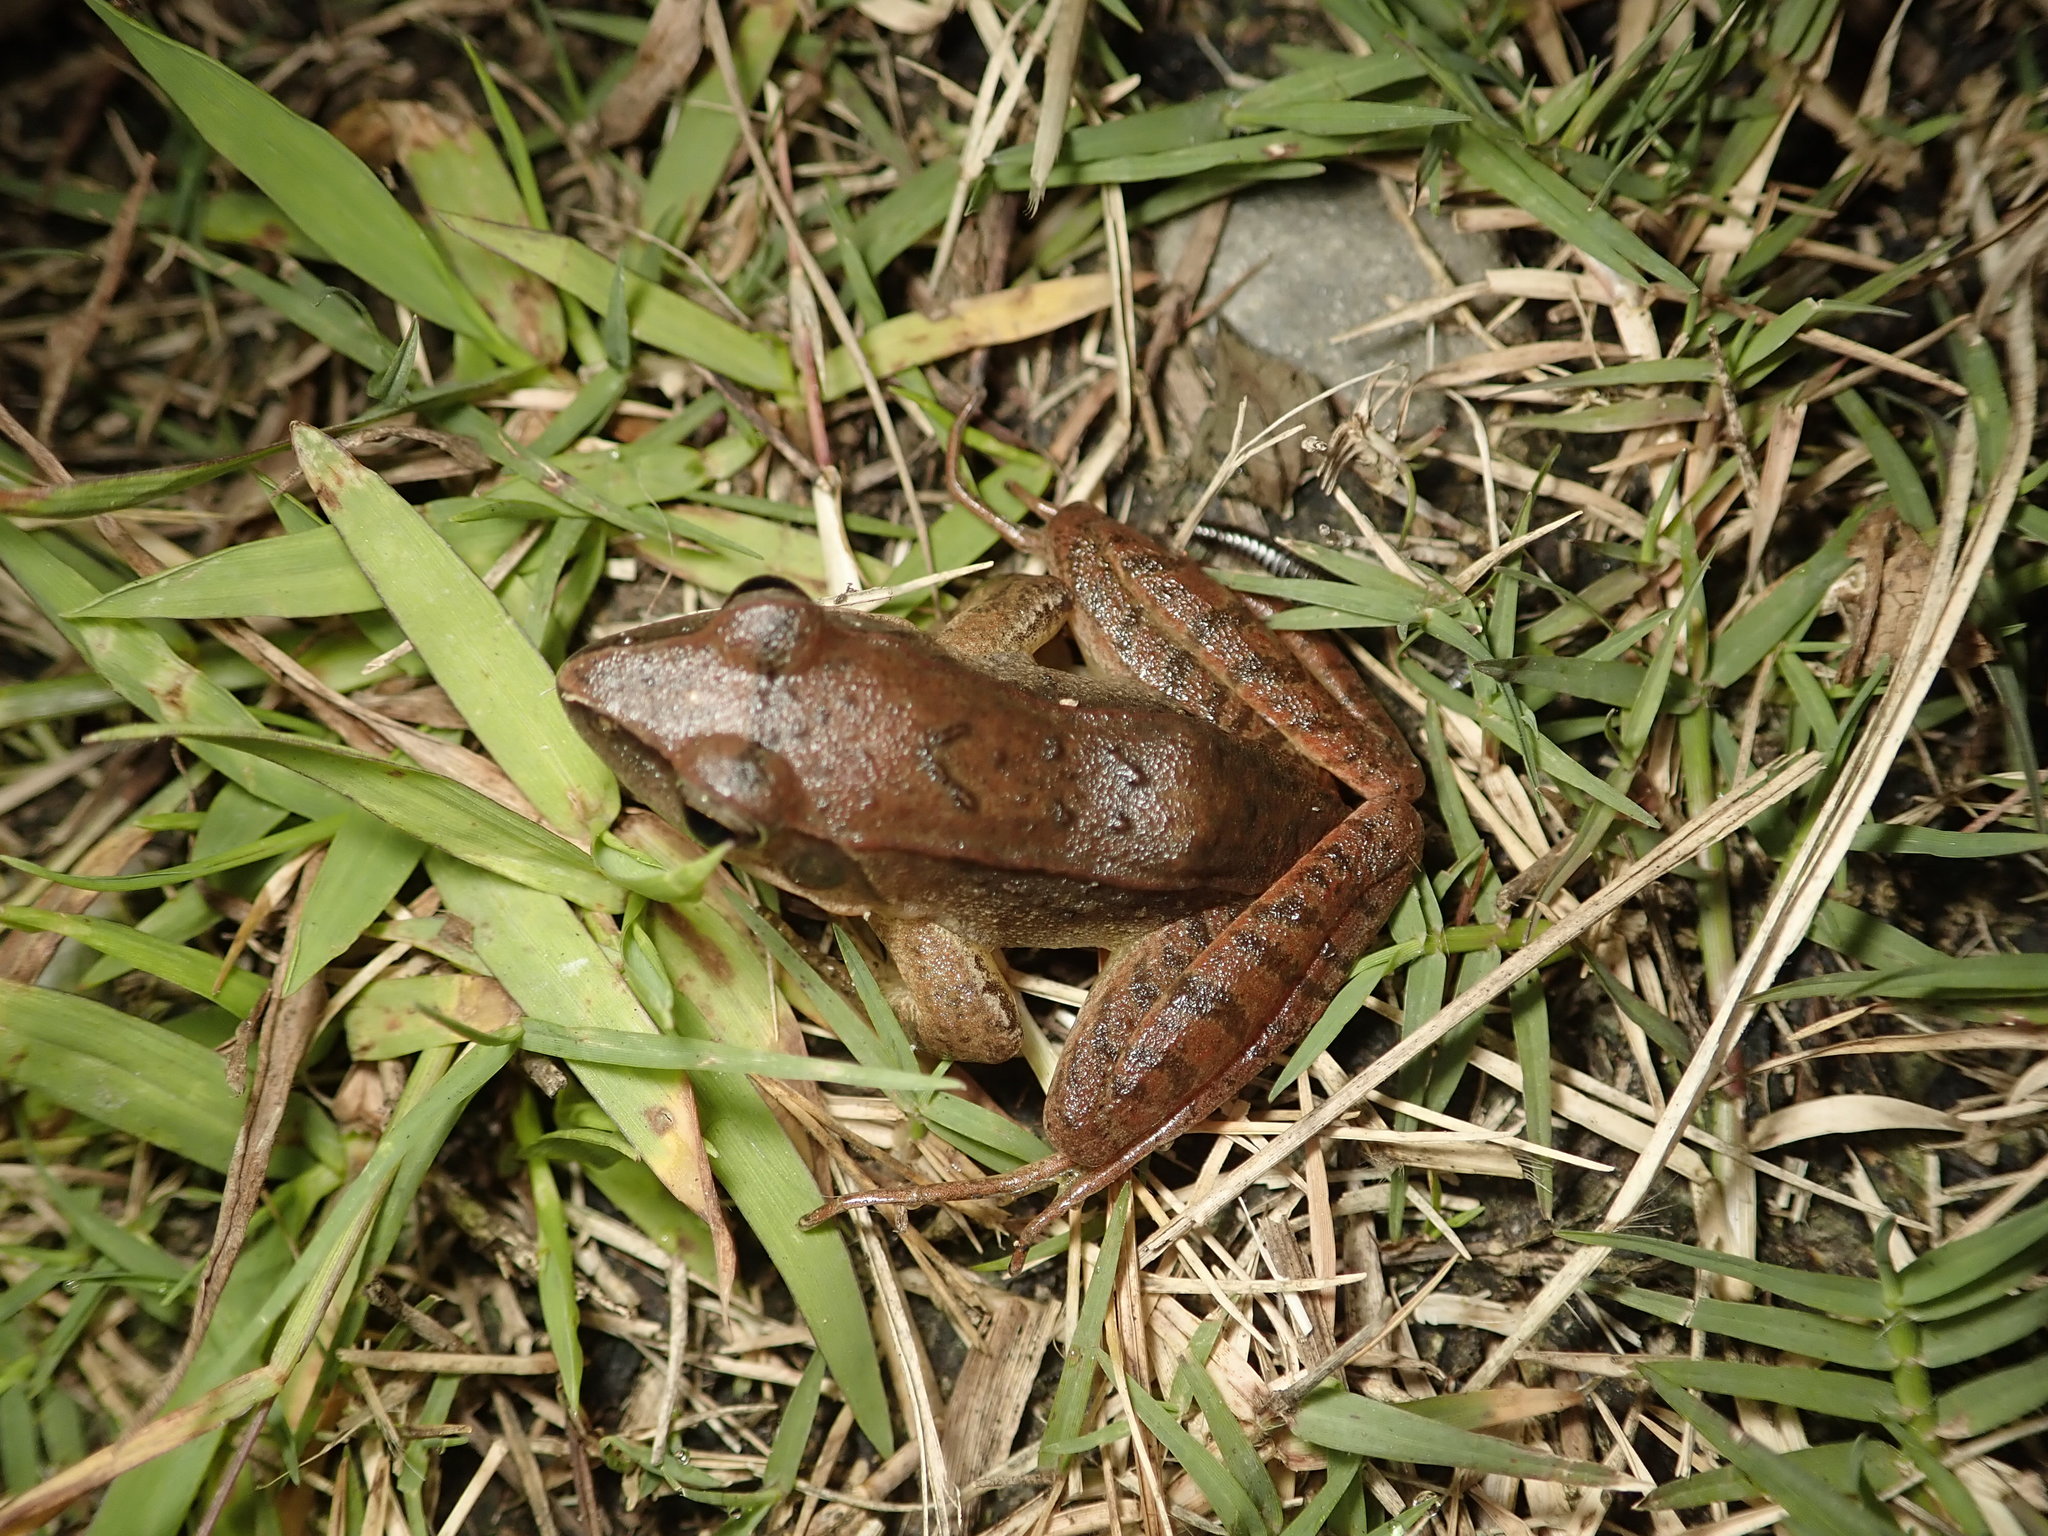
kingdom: Animalia
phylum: Chordata
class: Amphibia
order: Anura
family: Ranidae
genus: Rana
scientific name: Rana longicrus
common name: Long-legged brown frog
